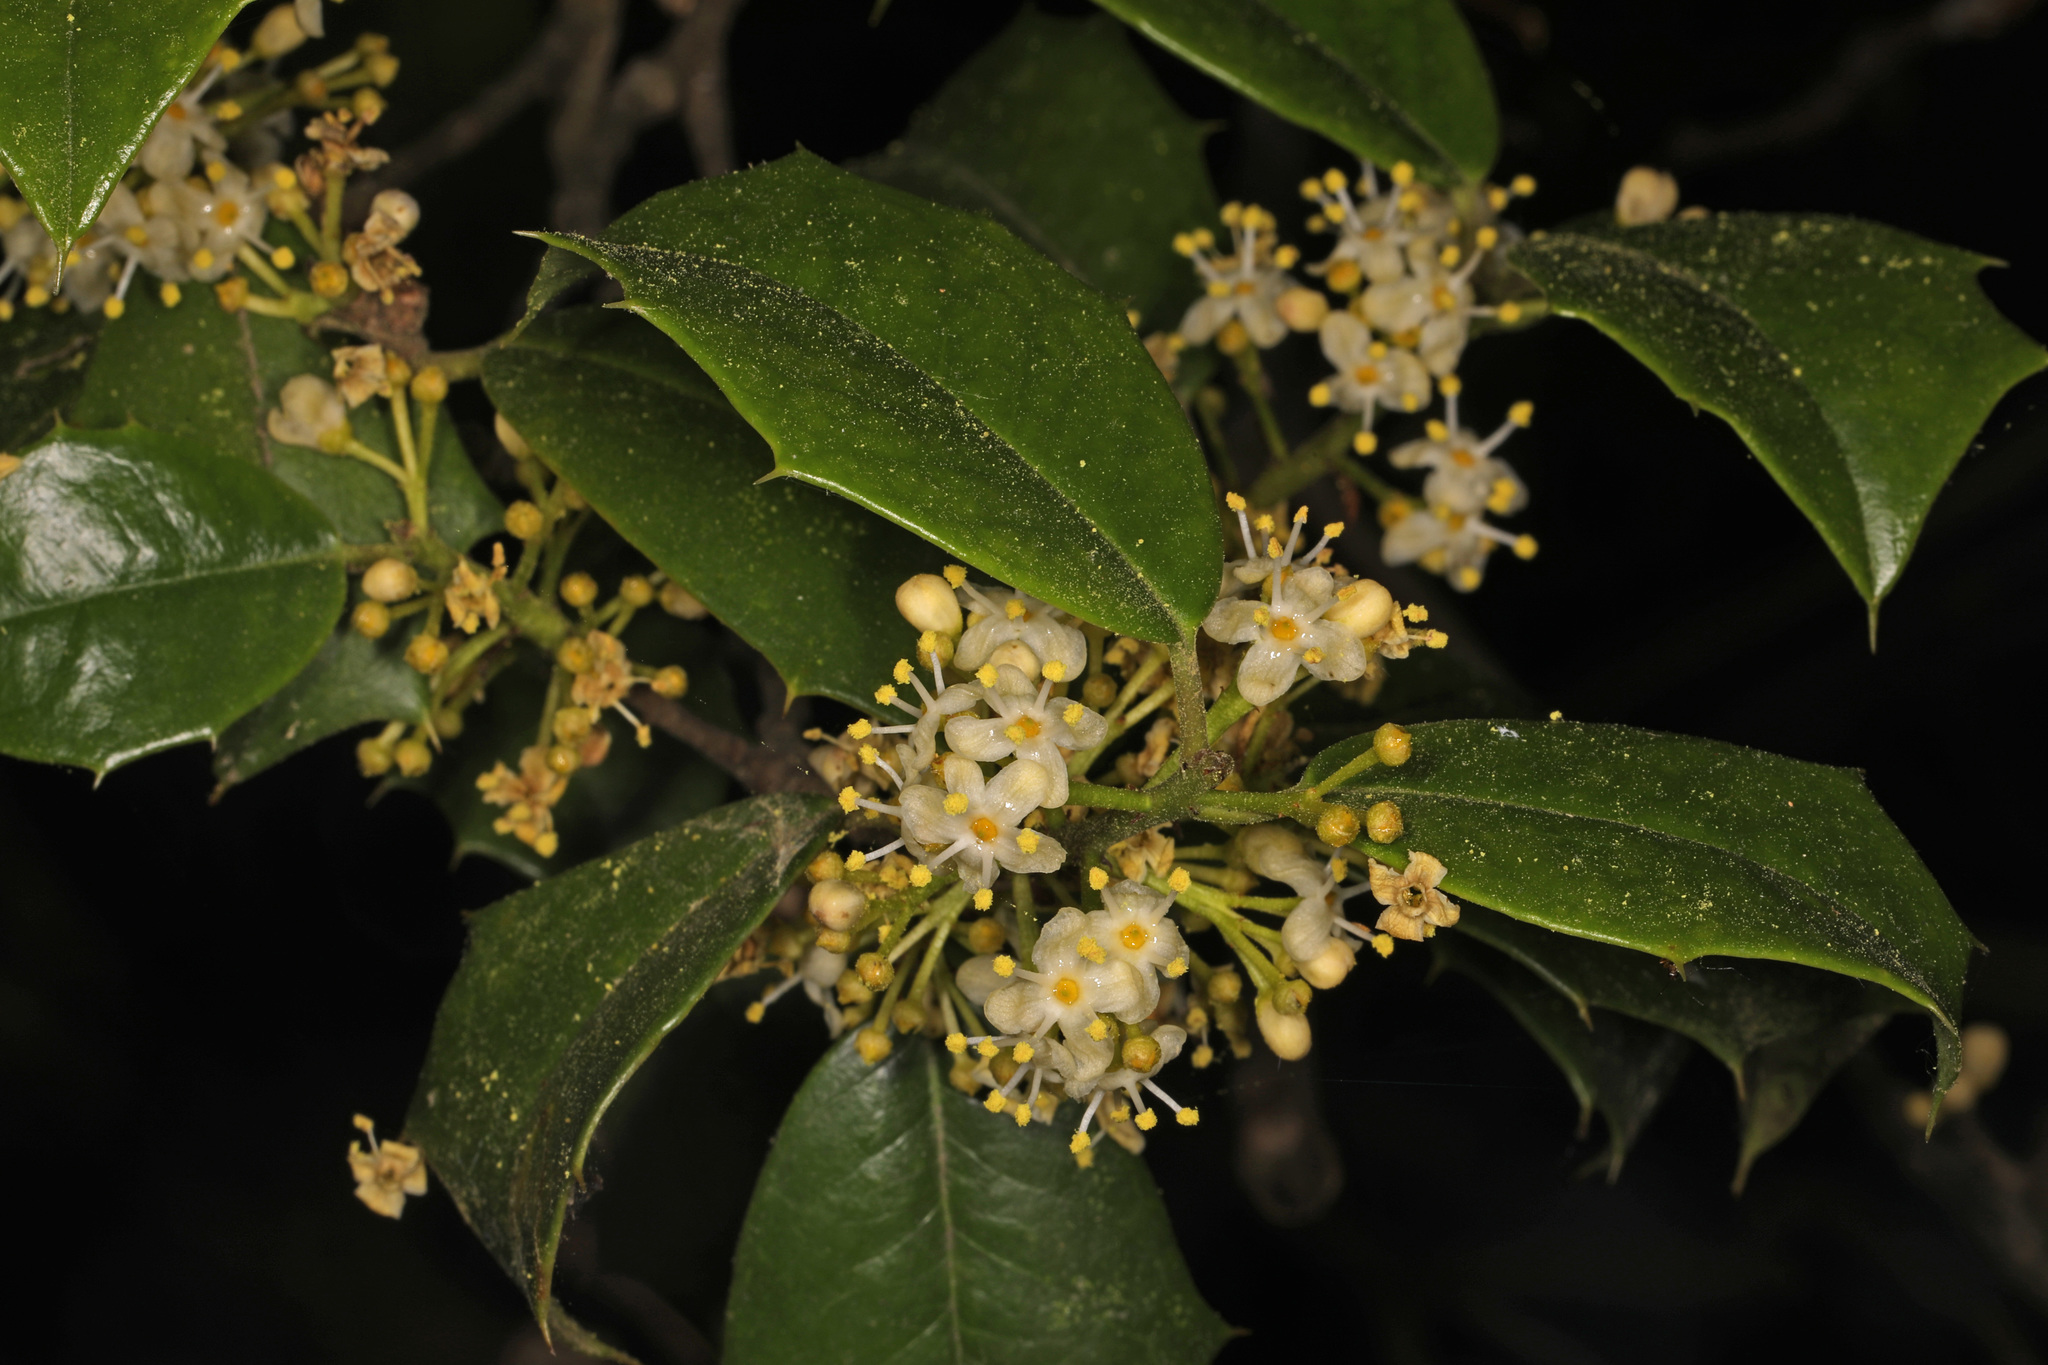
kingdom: Plantae
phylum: Tracheophyta
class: Magnoliopsida
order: Aquifoliales
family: Aquifoliaceae
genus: Ilex
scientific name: Ilex opaca
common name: American holly
